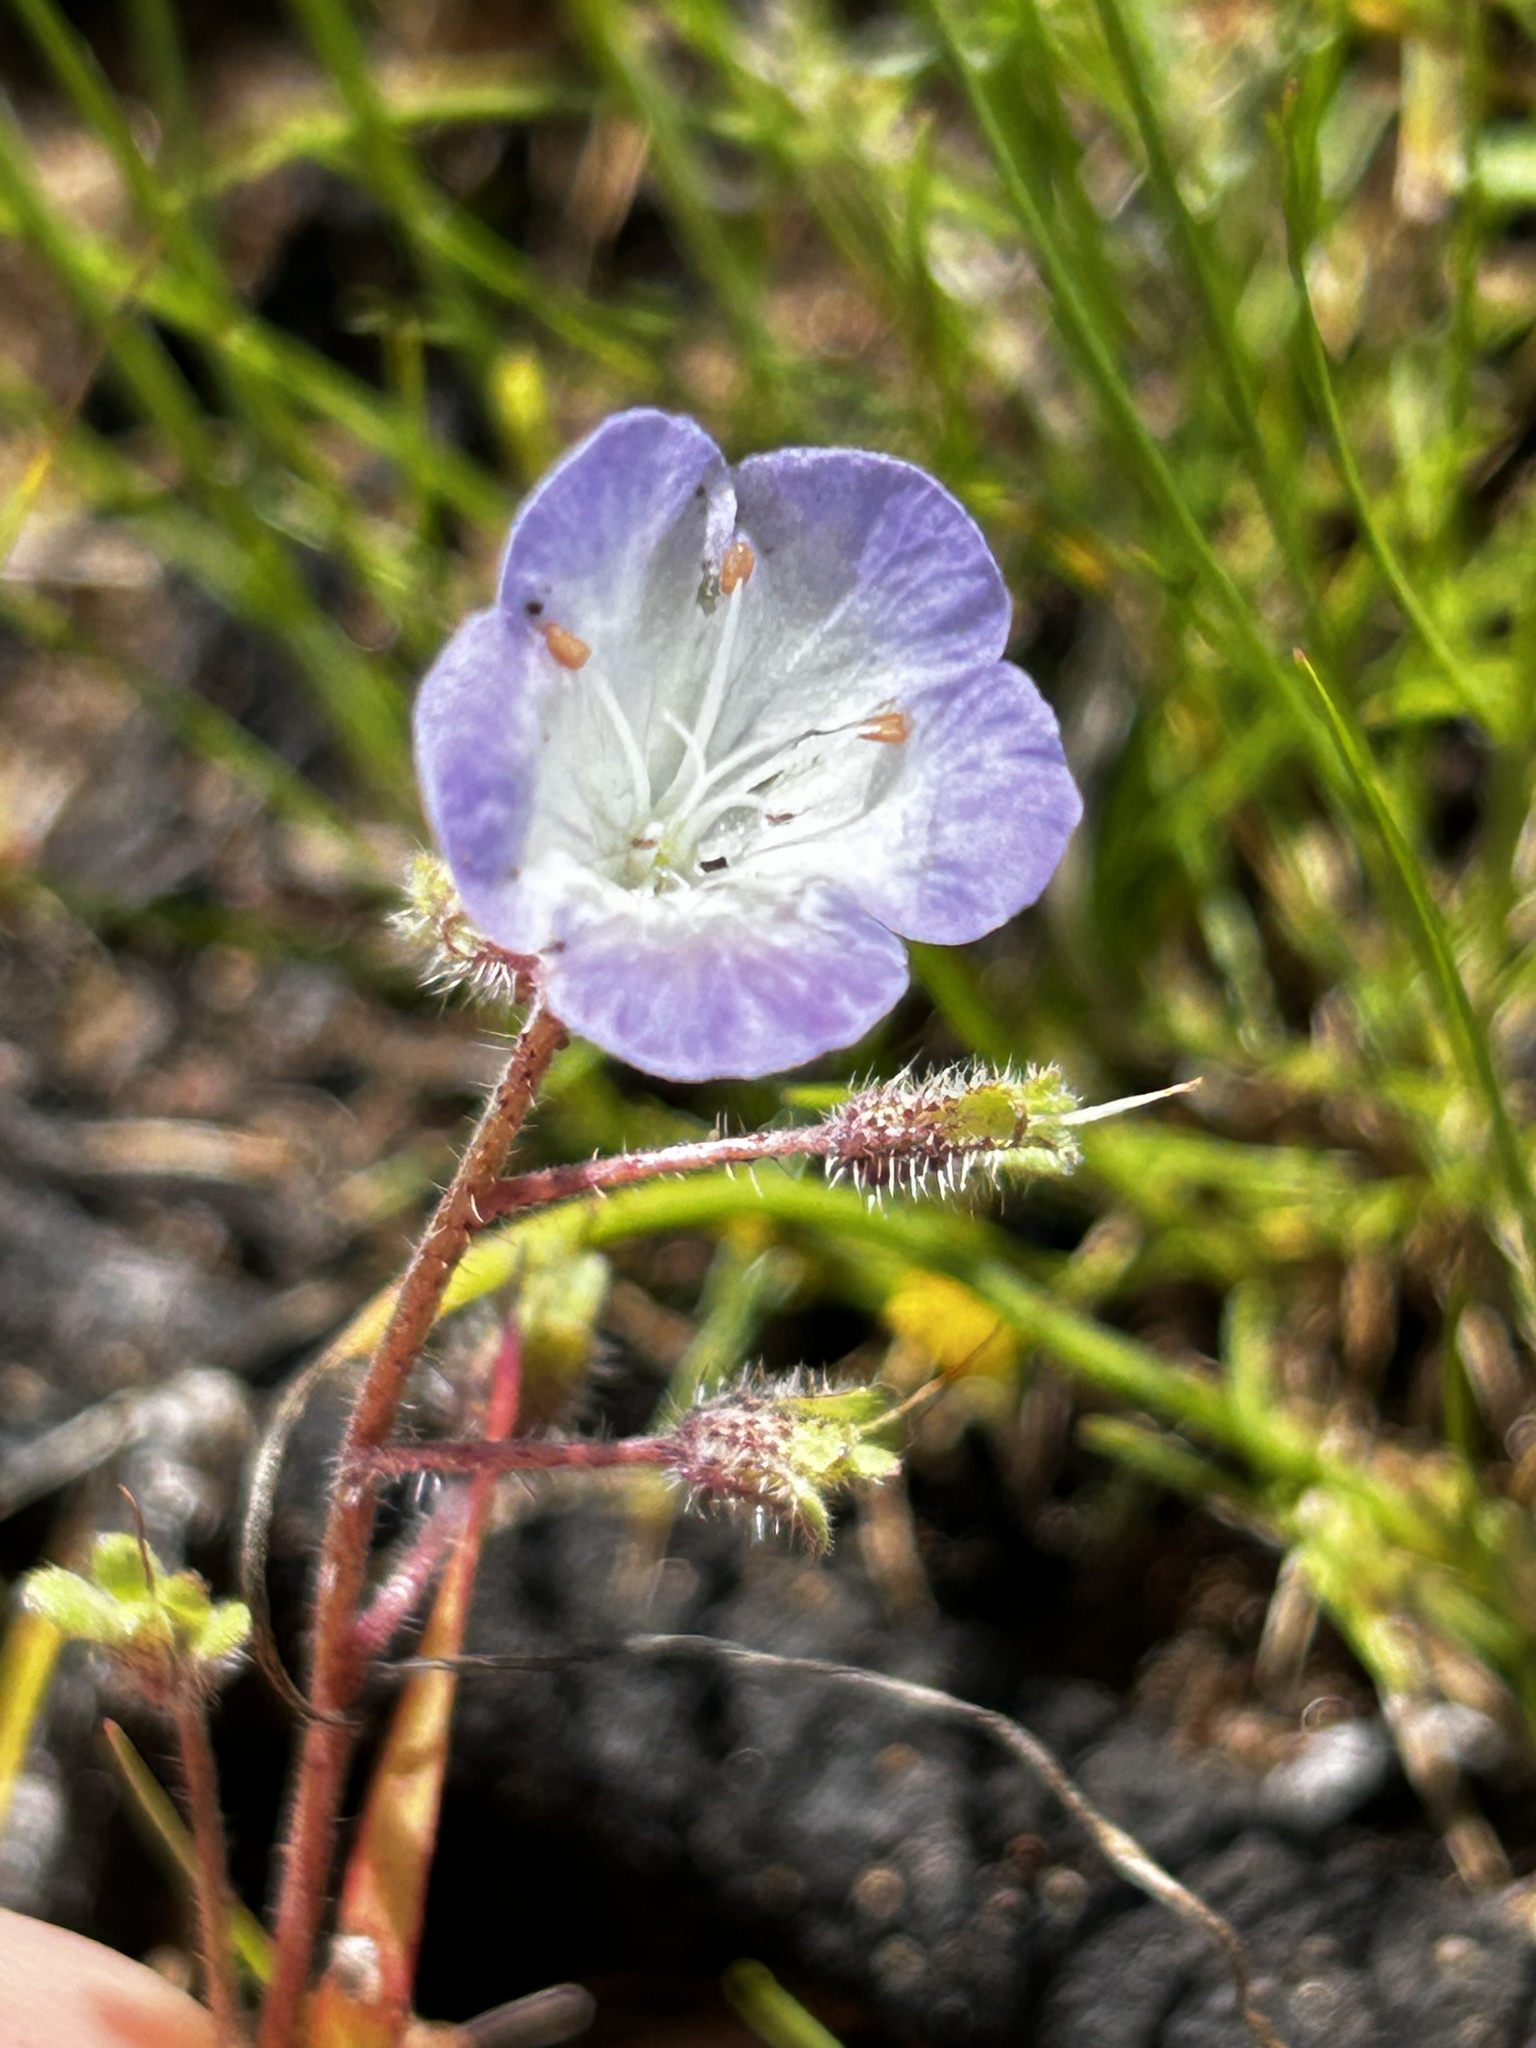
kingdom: Plantae
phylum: Tracheophyta
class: Magnoliopsida
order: Boraginales
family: Hydrophyllaceae
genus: Phacelia
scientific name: Phacelia douglasii
